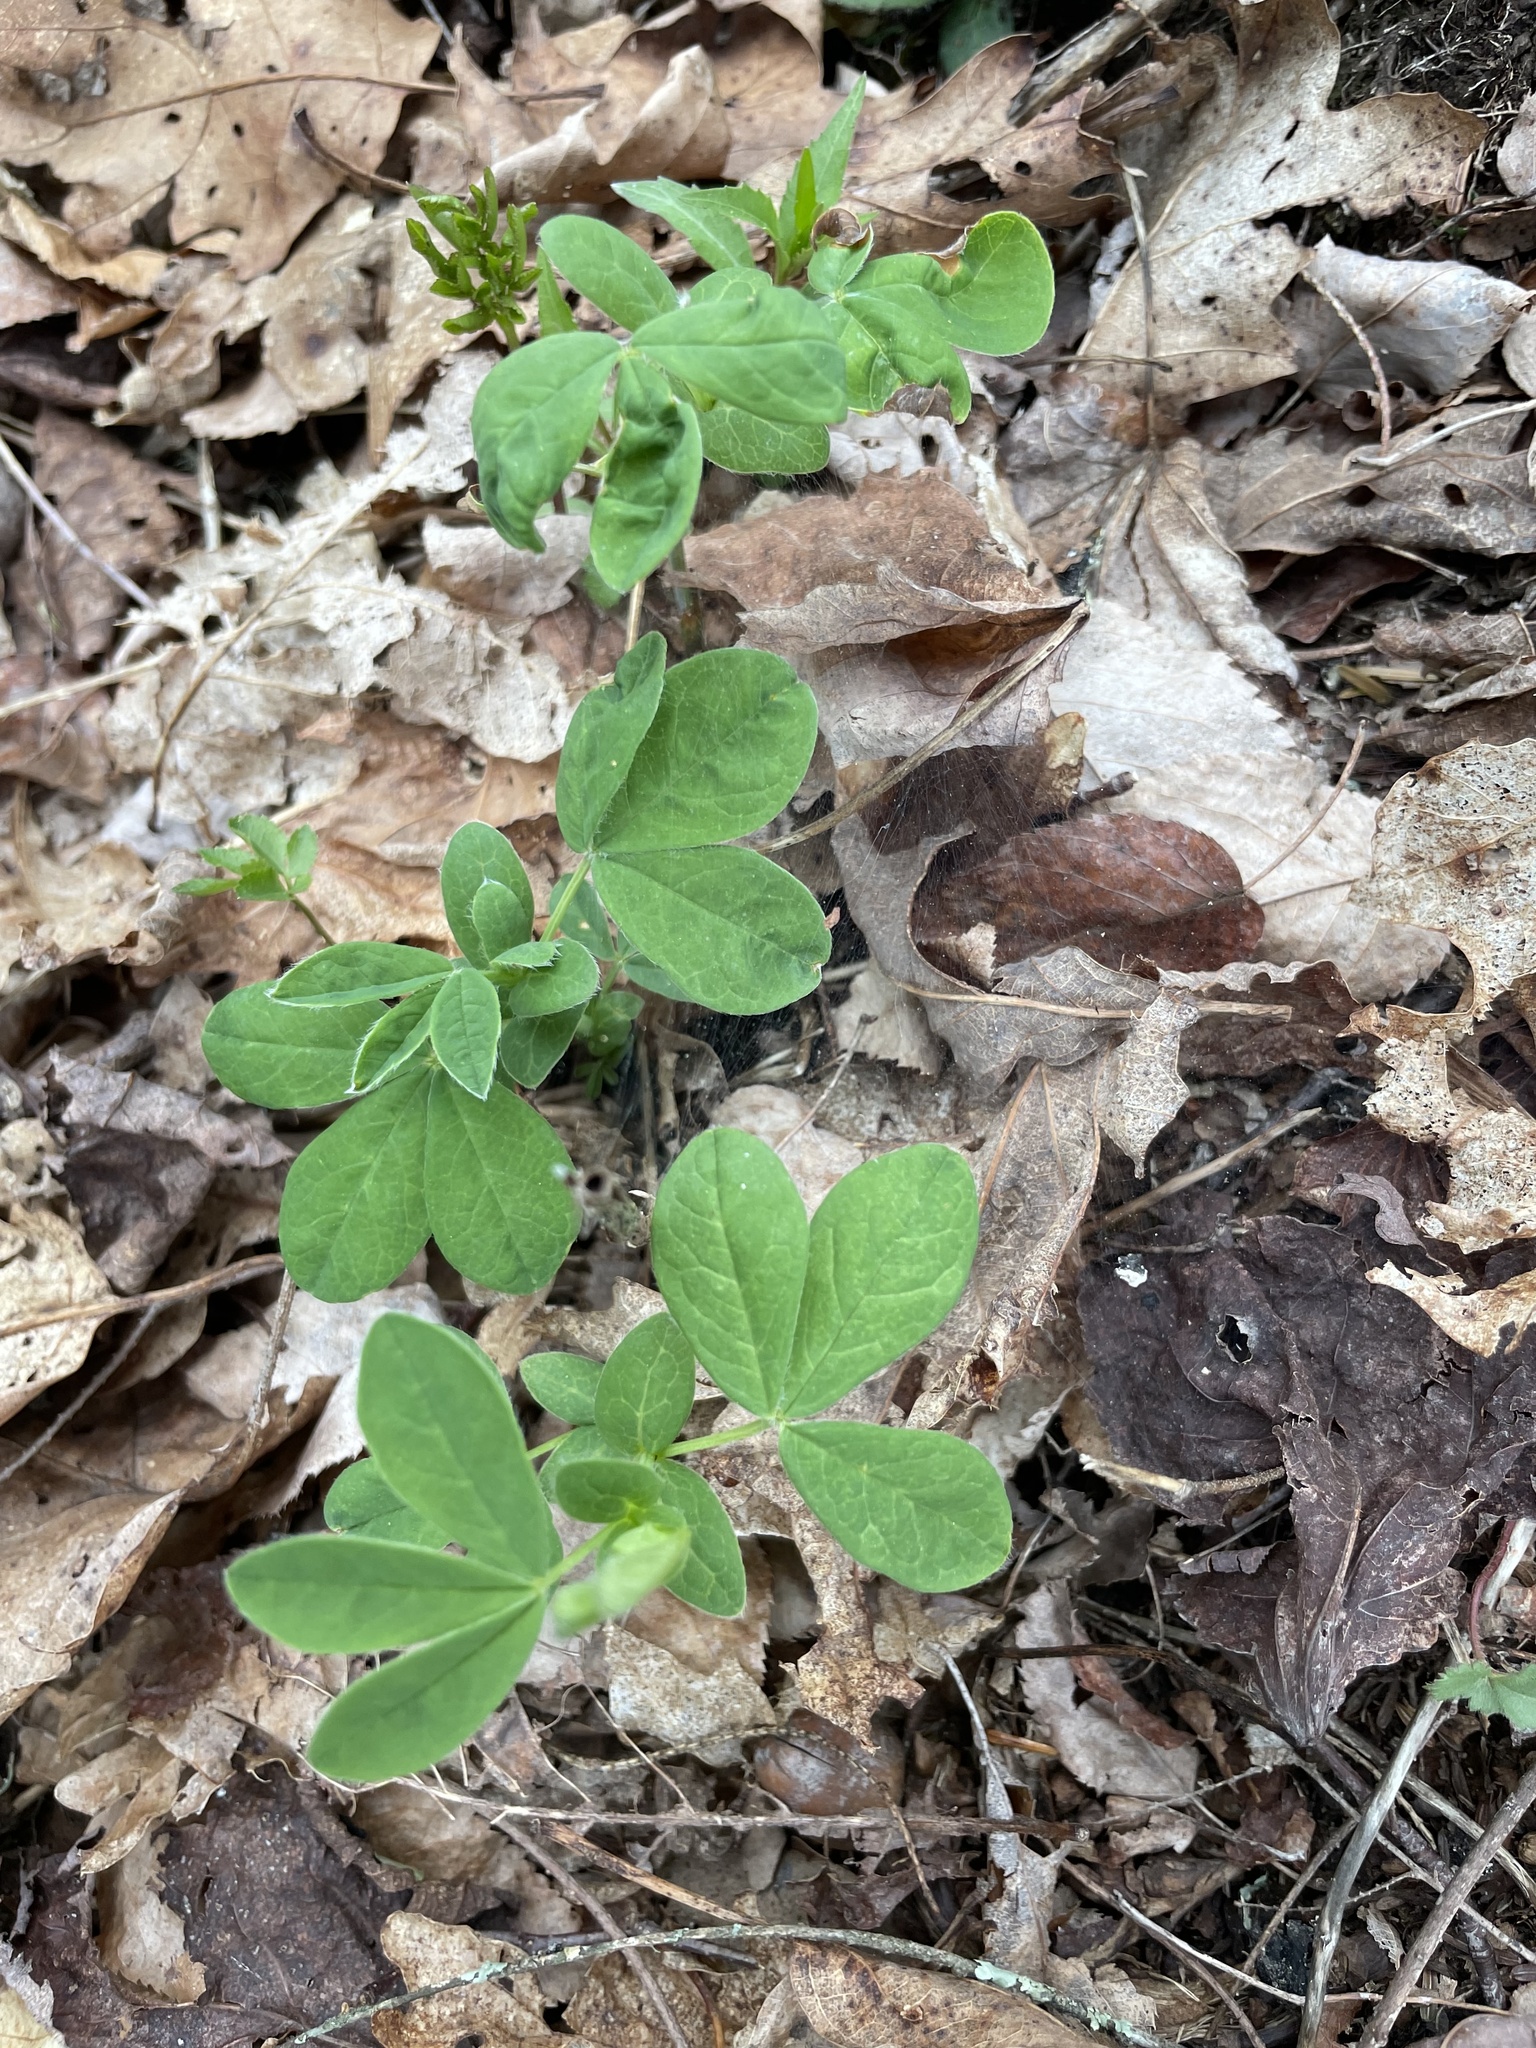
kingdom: Plantae
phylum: Tracheophyta
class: Magnoliopsida
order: Fabales
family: Fabaceae
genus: Thermopsis
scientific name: Thermopsis villosa
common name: Carolina-lupin
